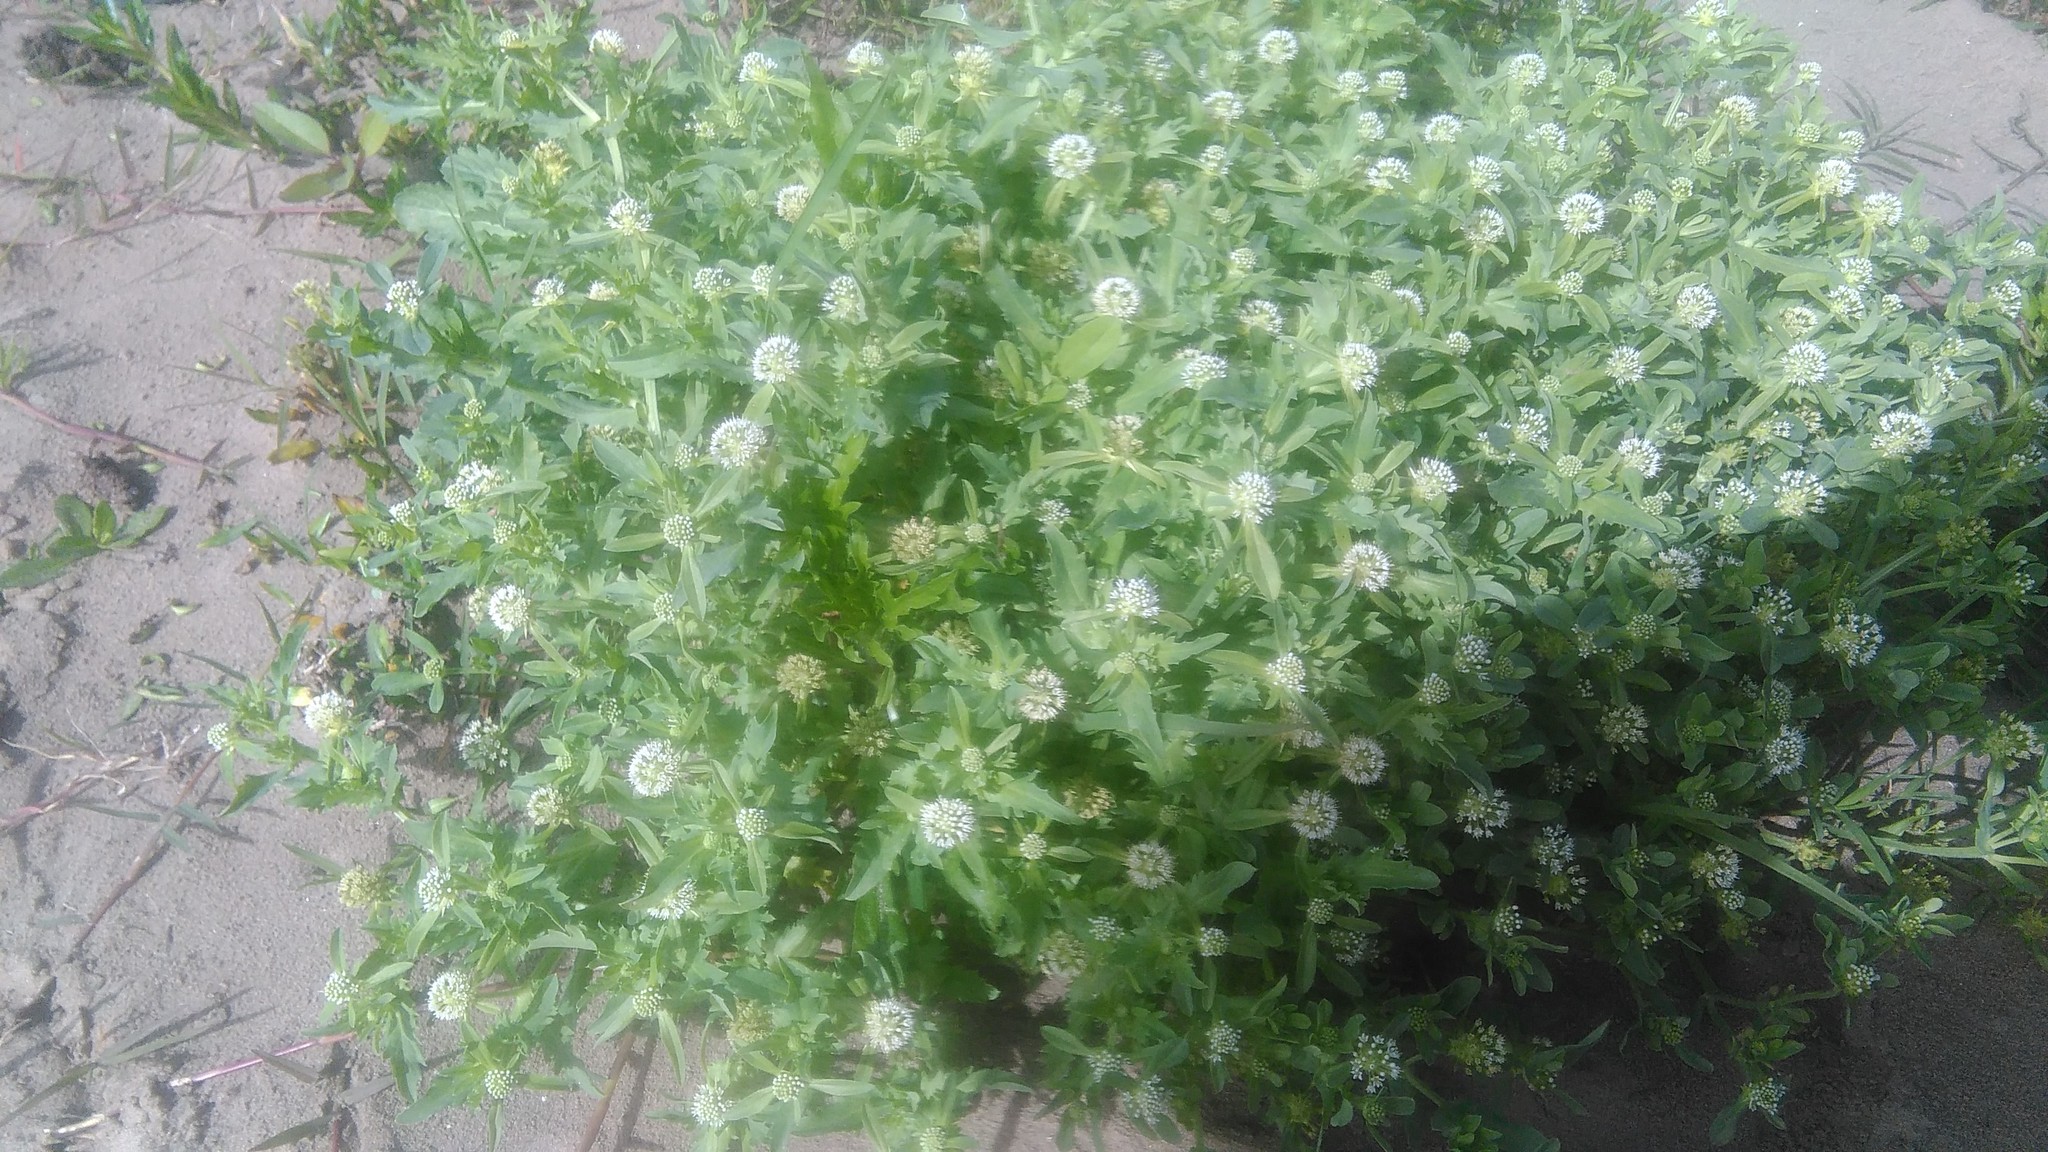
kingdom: Plantae
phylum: Tracheophyta
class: Magnoliopsida
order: Asterales
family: Calyceraceae
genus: Acicarpha
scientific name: Acicarpha tribuloides
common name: Madam gorgon
